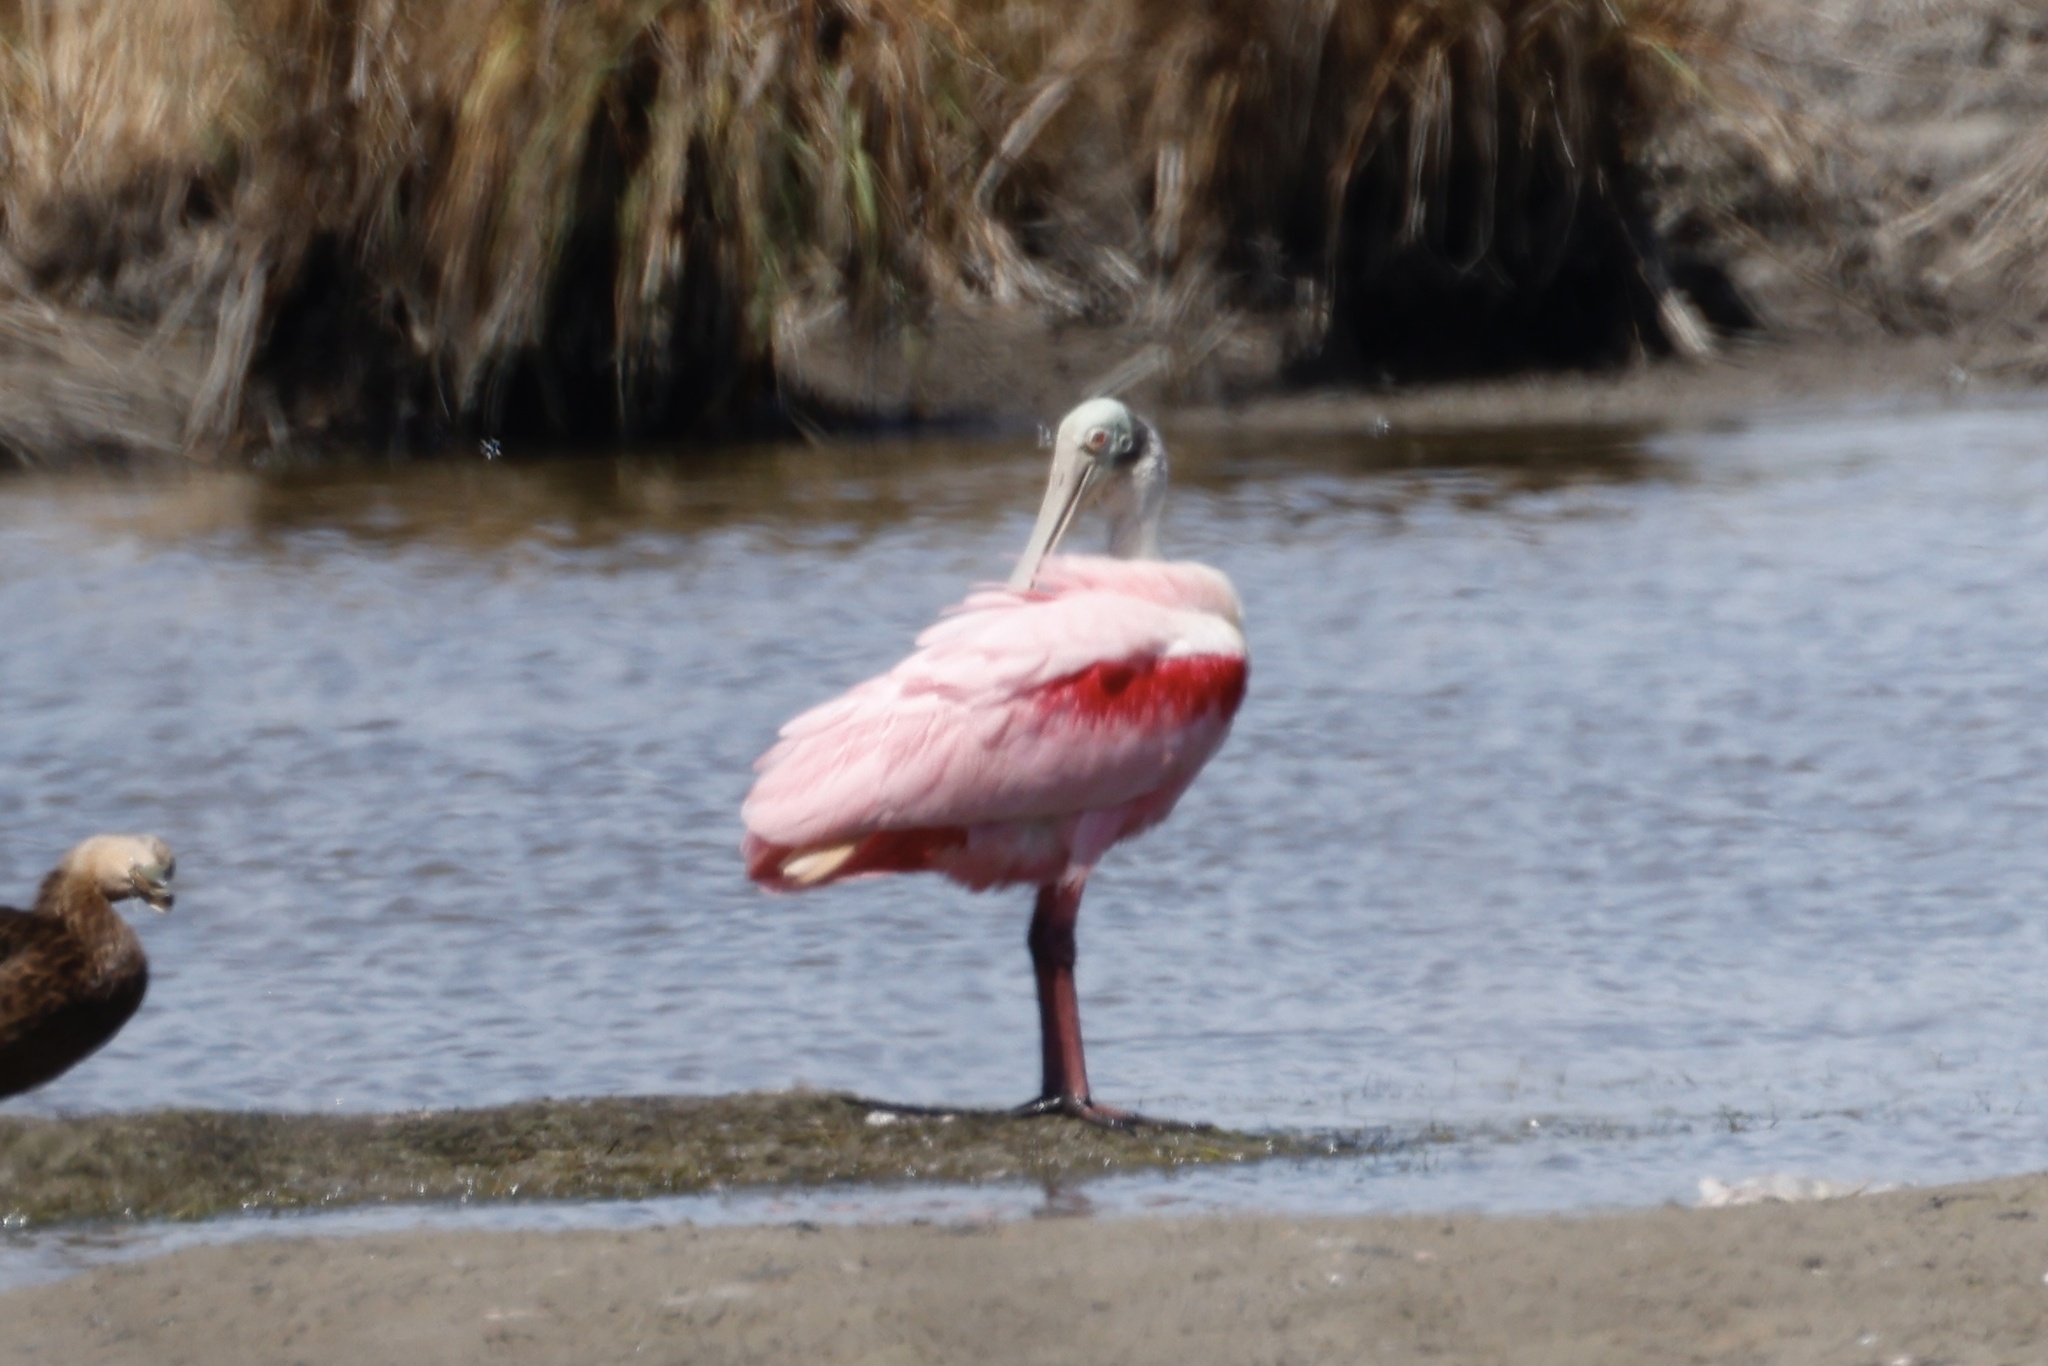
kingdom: Animalia
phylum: Chordata
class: Aves
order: Pelecaniformes
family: Threskiornithidae
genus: Platalea
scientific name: Platalea ajaja
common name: Roseate spoonbill
